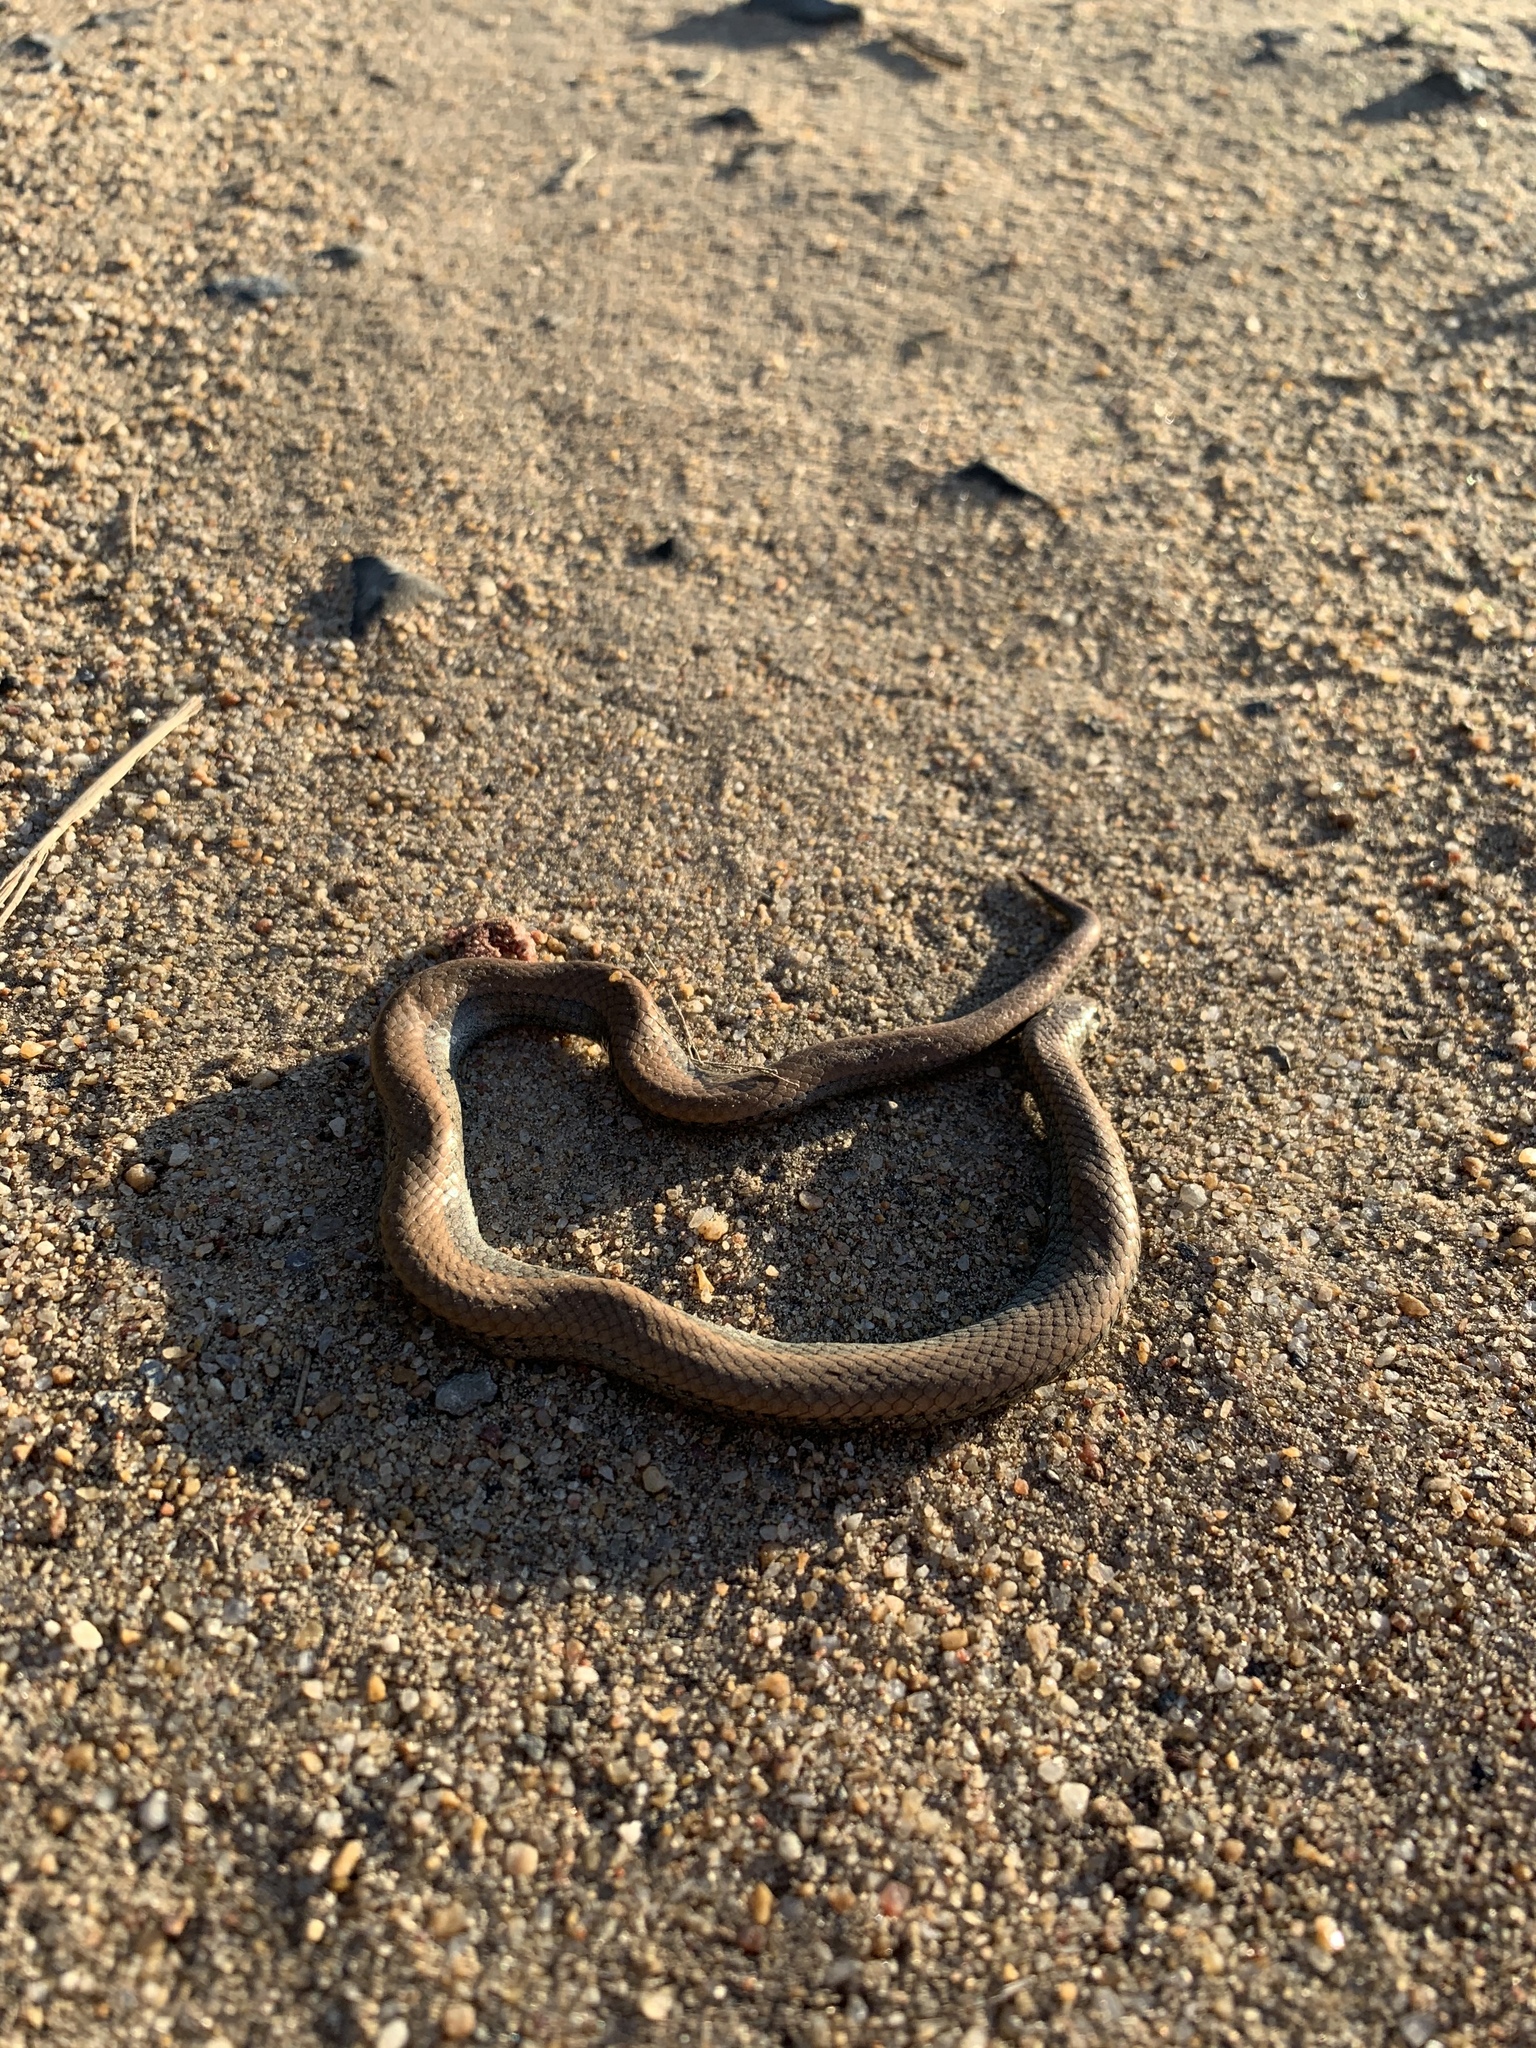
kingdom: Animalia
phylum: Chordata
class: Squamata
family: Pseudoxyrhophiidae
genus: Duberria
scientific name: Duberria lutrix
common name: Common slug eater
